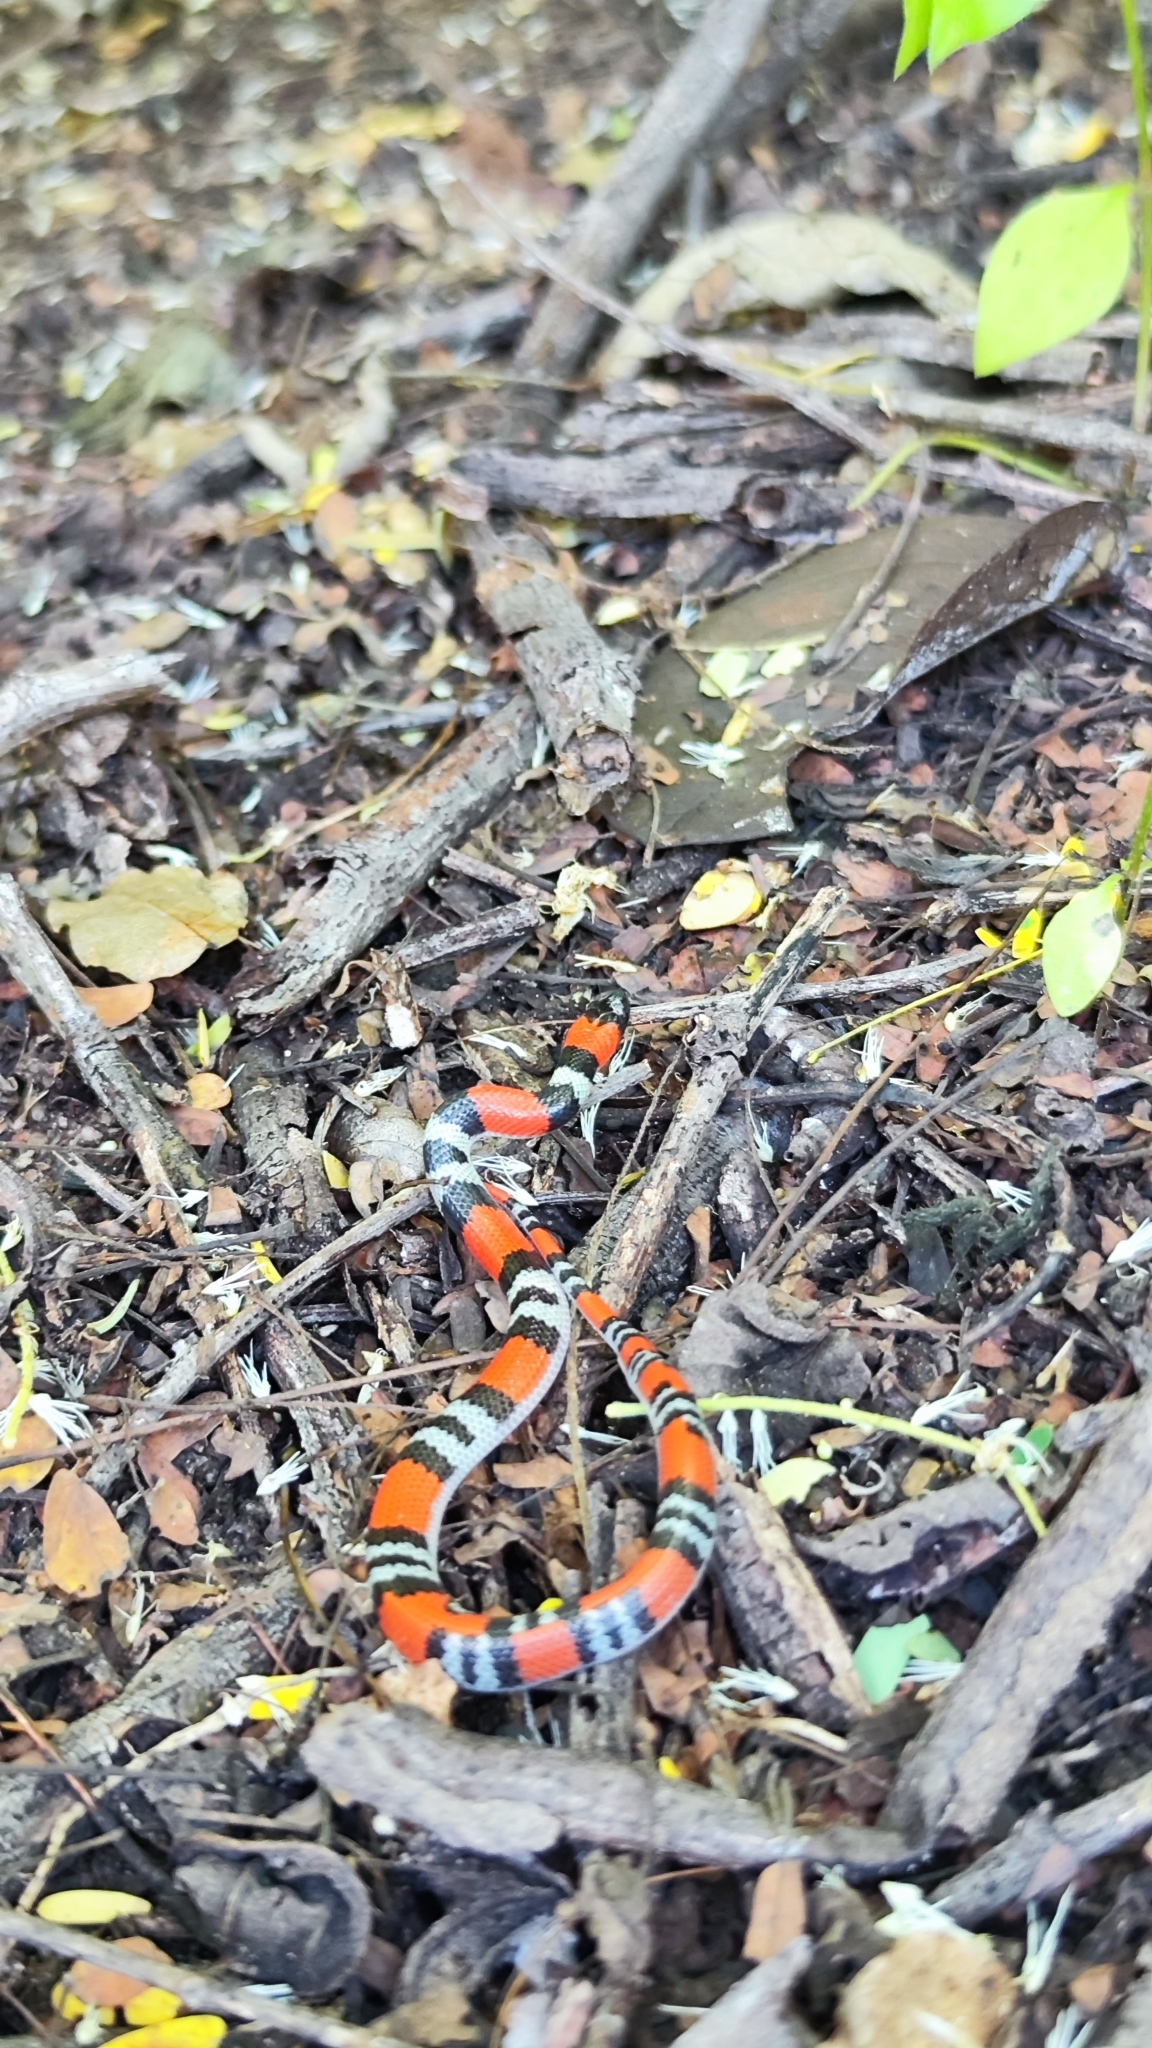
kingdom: Animalia
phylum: Chordata
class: Squamata
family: Colubridae
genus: Oxyrhopus
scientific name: Oxyrhopus trigeminus
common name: Brazilian false coral snake
